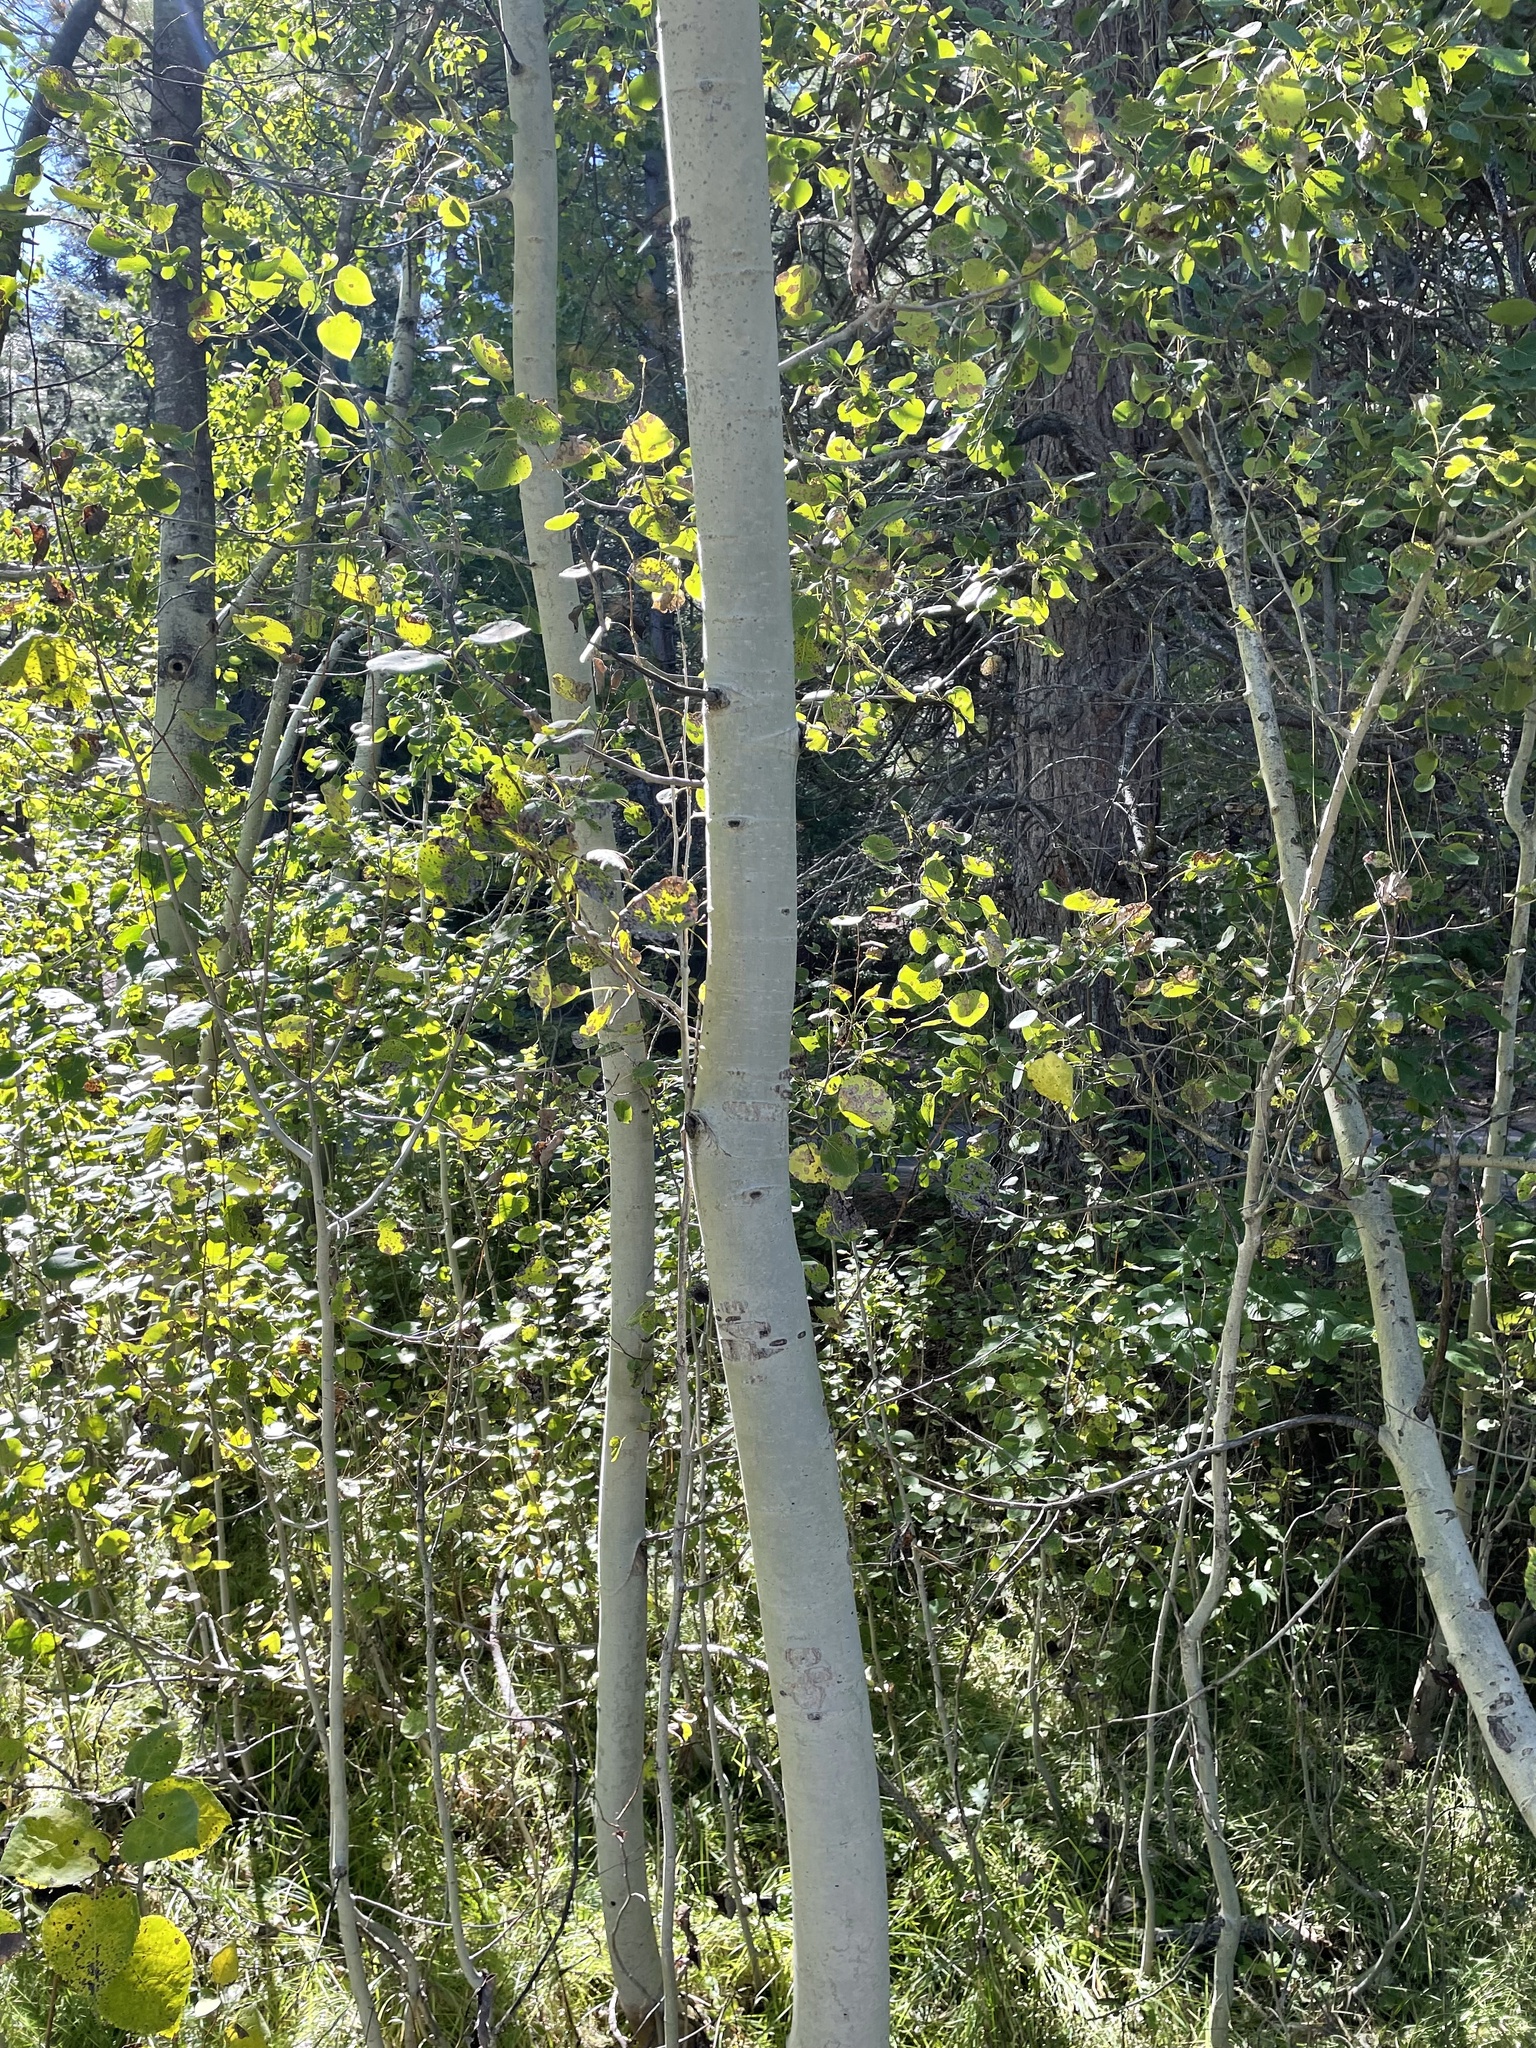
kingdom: Plantae
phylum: Tracheophyta
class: Magnoliopsida
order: Malpighiales
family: Salicaceae
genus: Populus
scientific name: Populus tremuloides
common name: Quaking aspen
